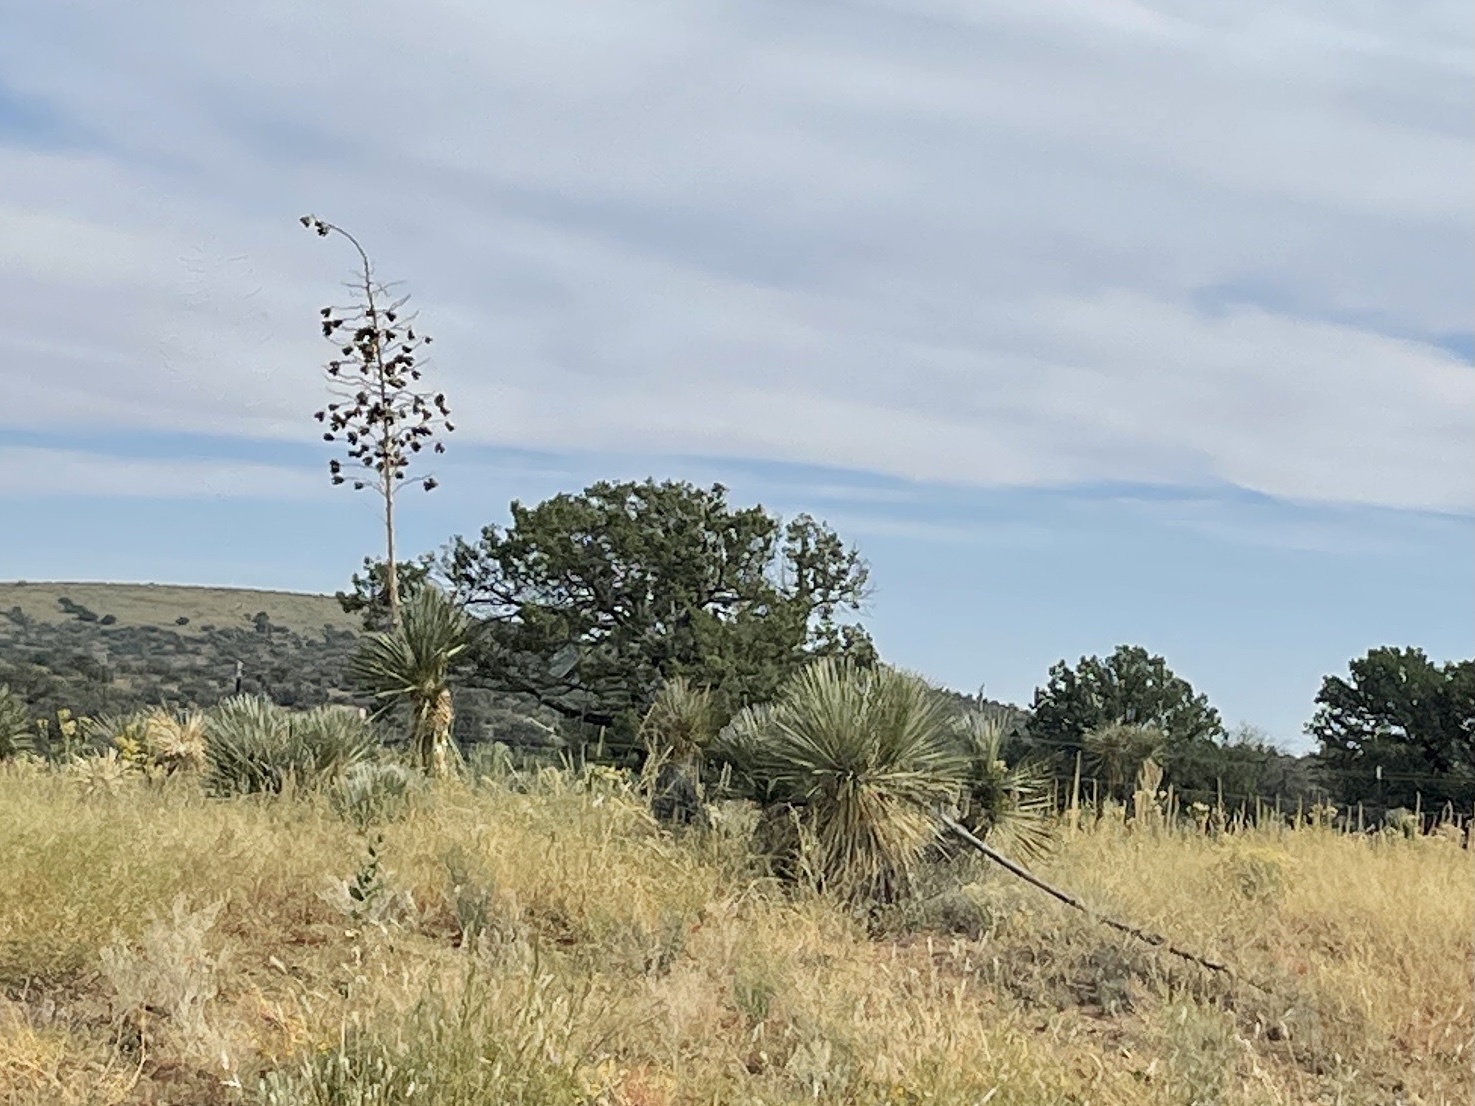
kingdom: Plantae
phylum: Tracheophyta
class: Liliopsida
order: Asparagales
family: Asparagaceae
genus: Yucca
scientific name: Yucca elata
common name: Palmella
